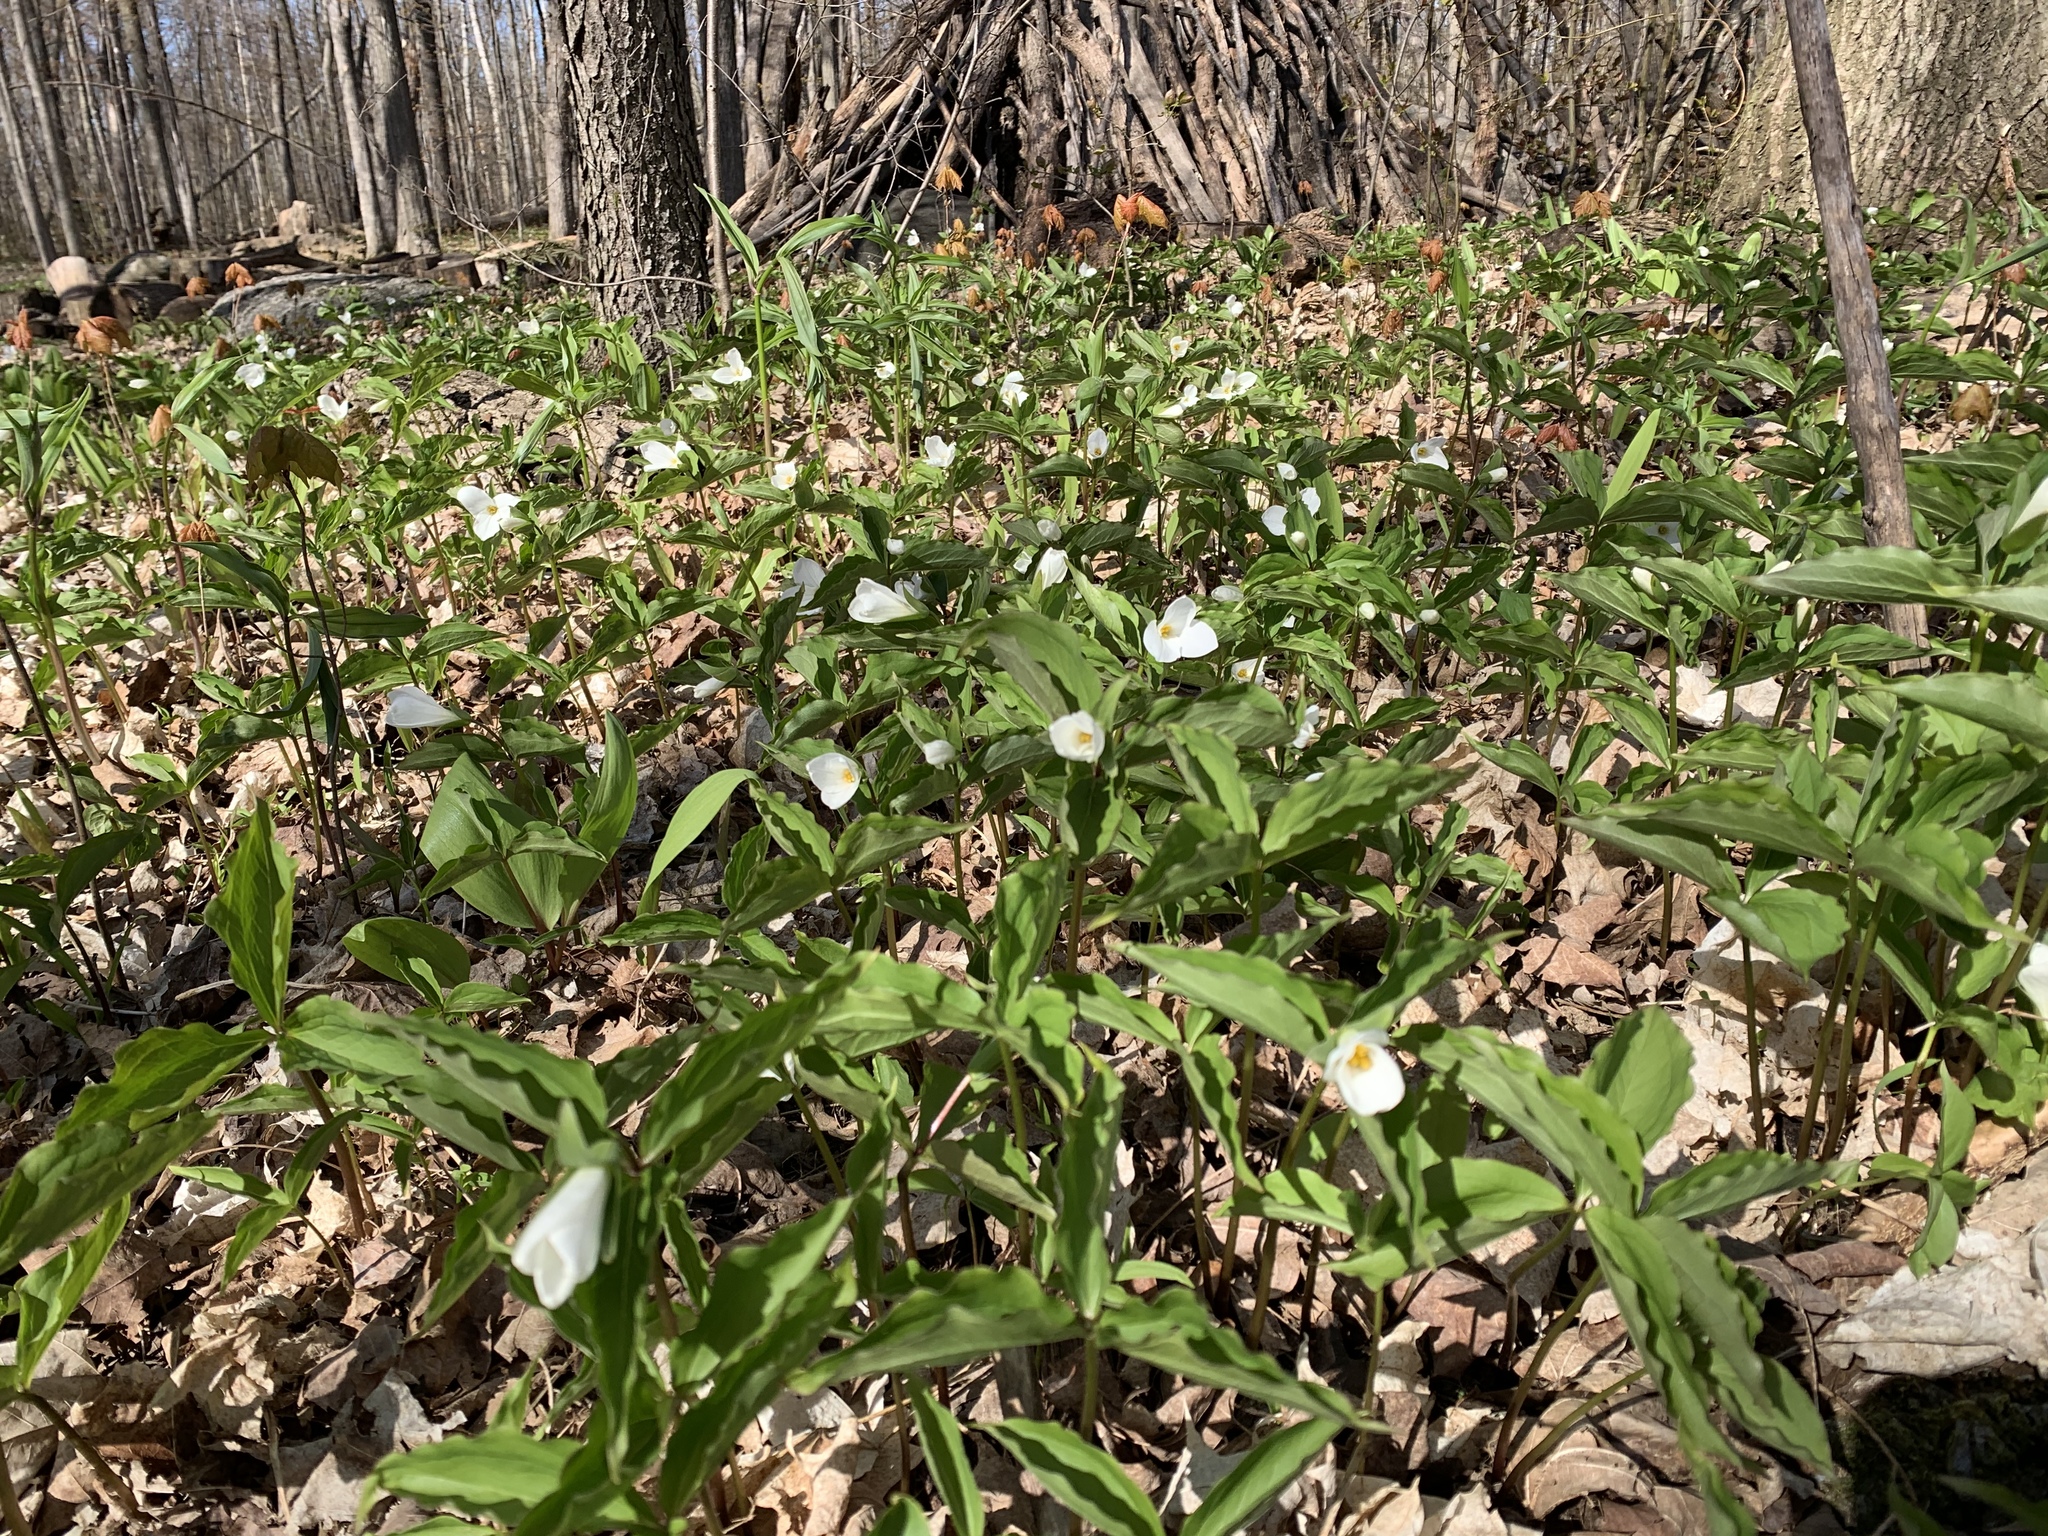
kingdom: Plantae
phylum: Tracheophyta
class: Liliopsida
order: Liliales
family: Melanthiaceae
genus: Trillium
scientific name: Trillium grandiflorum
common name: Great white trillium
